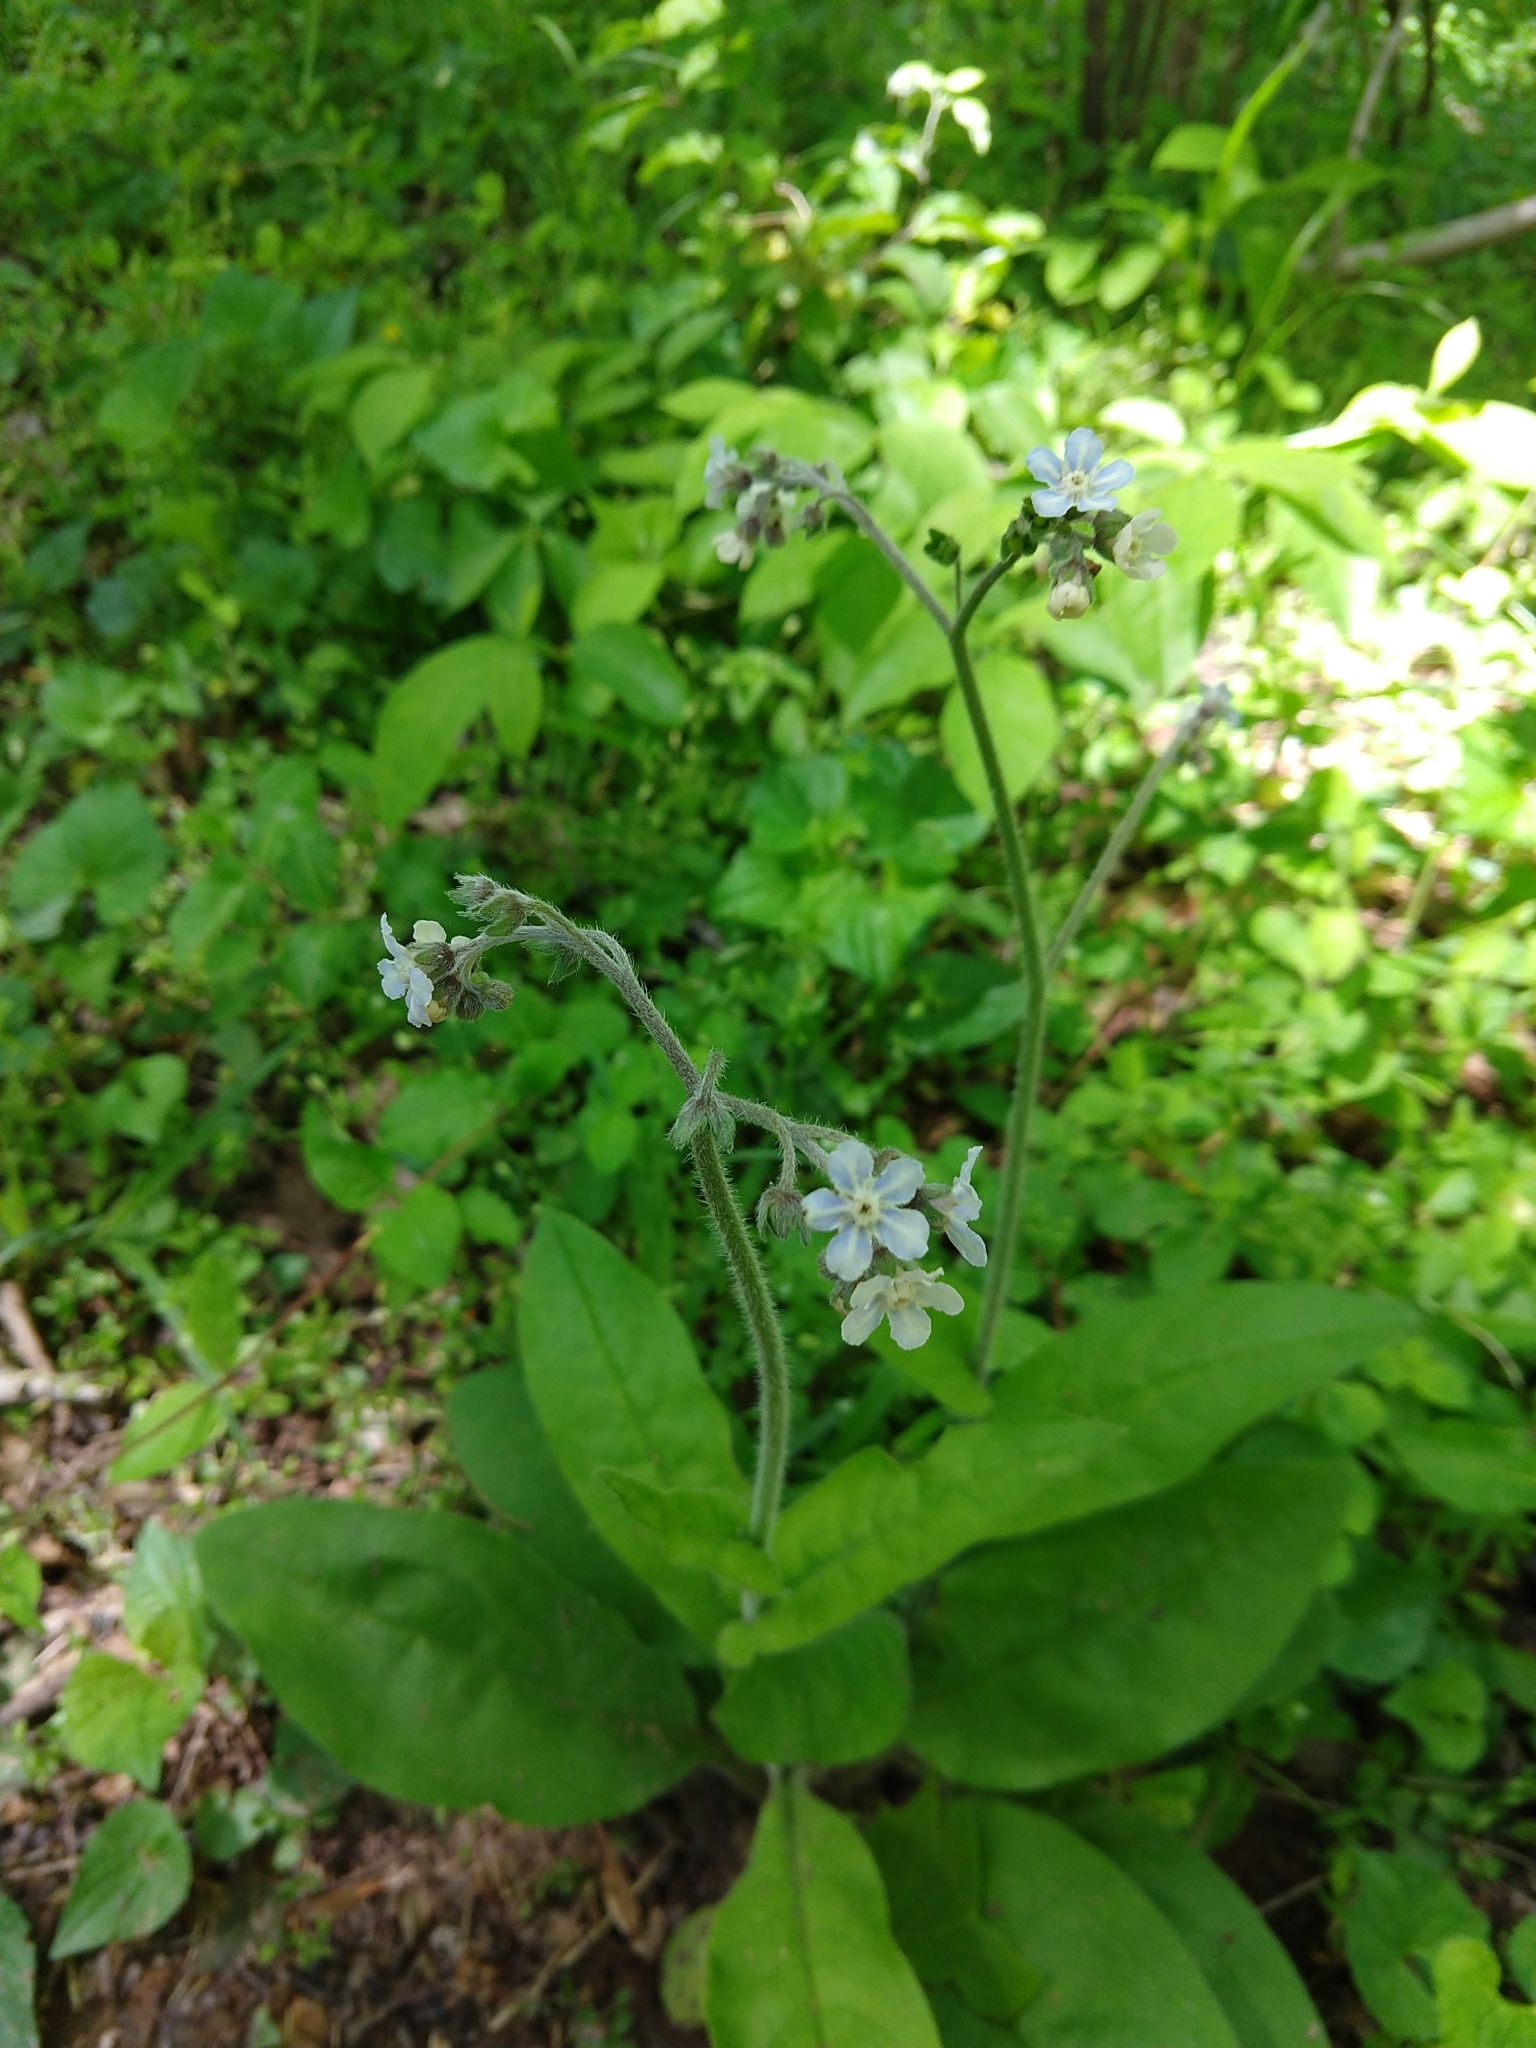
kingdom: Plantae
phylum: Tracheophyta
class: Magnoliopsida
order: Boraginales
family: Boraginaceae
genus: Andersonglossum
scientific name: Andersonglossum virginianum
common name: Wild comfrey
